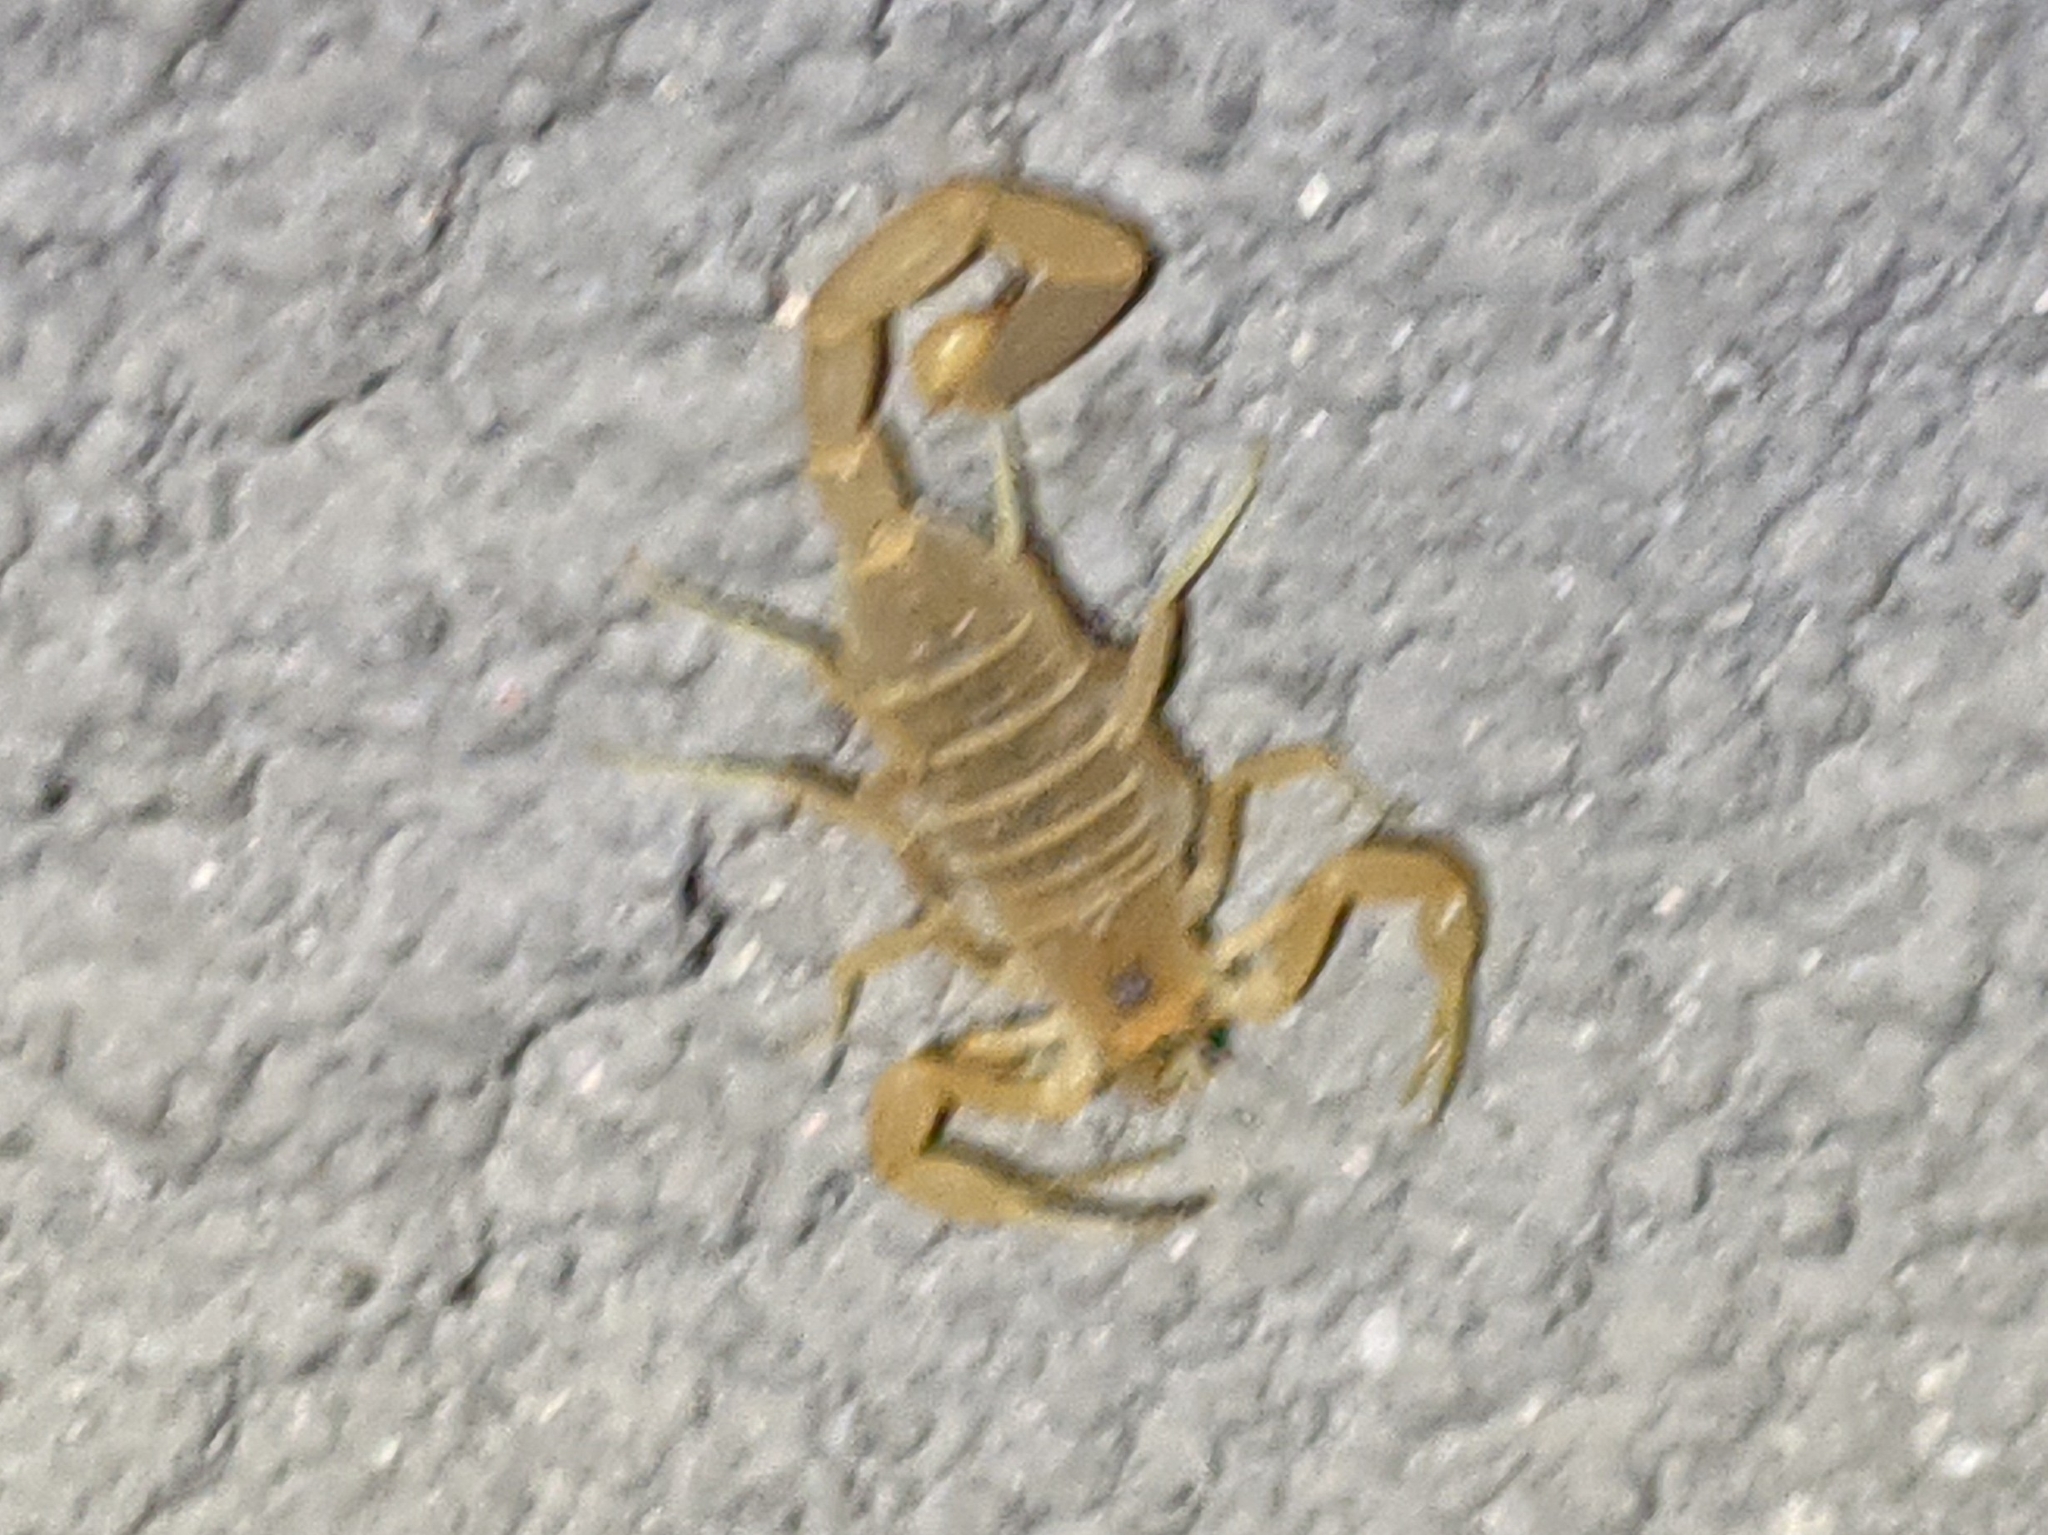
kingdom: Animalia
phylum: Arthropoda
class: Arachnida
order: Scorpiones
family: Buthidae
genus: Centruroides
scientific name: Centruroides vittatus
